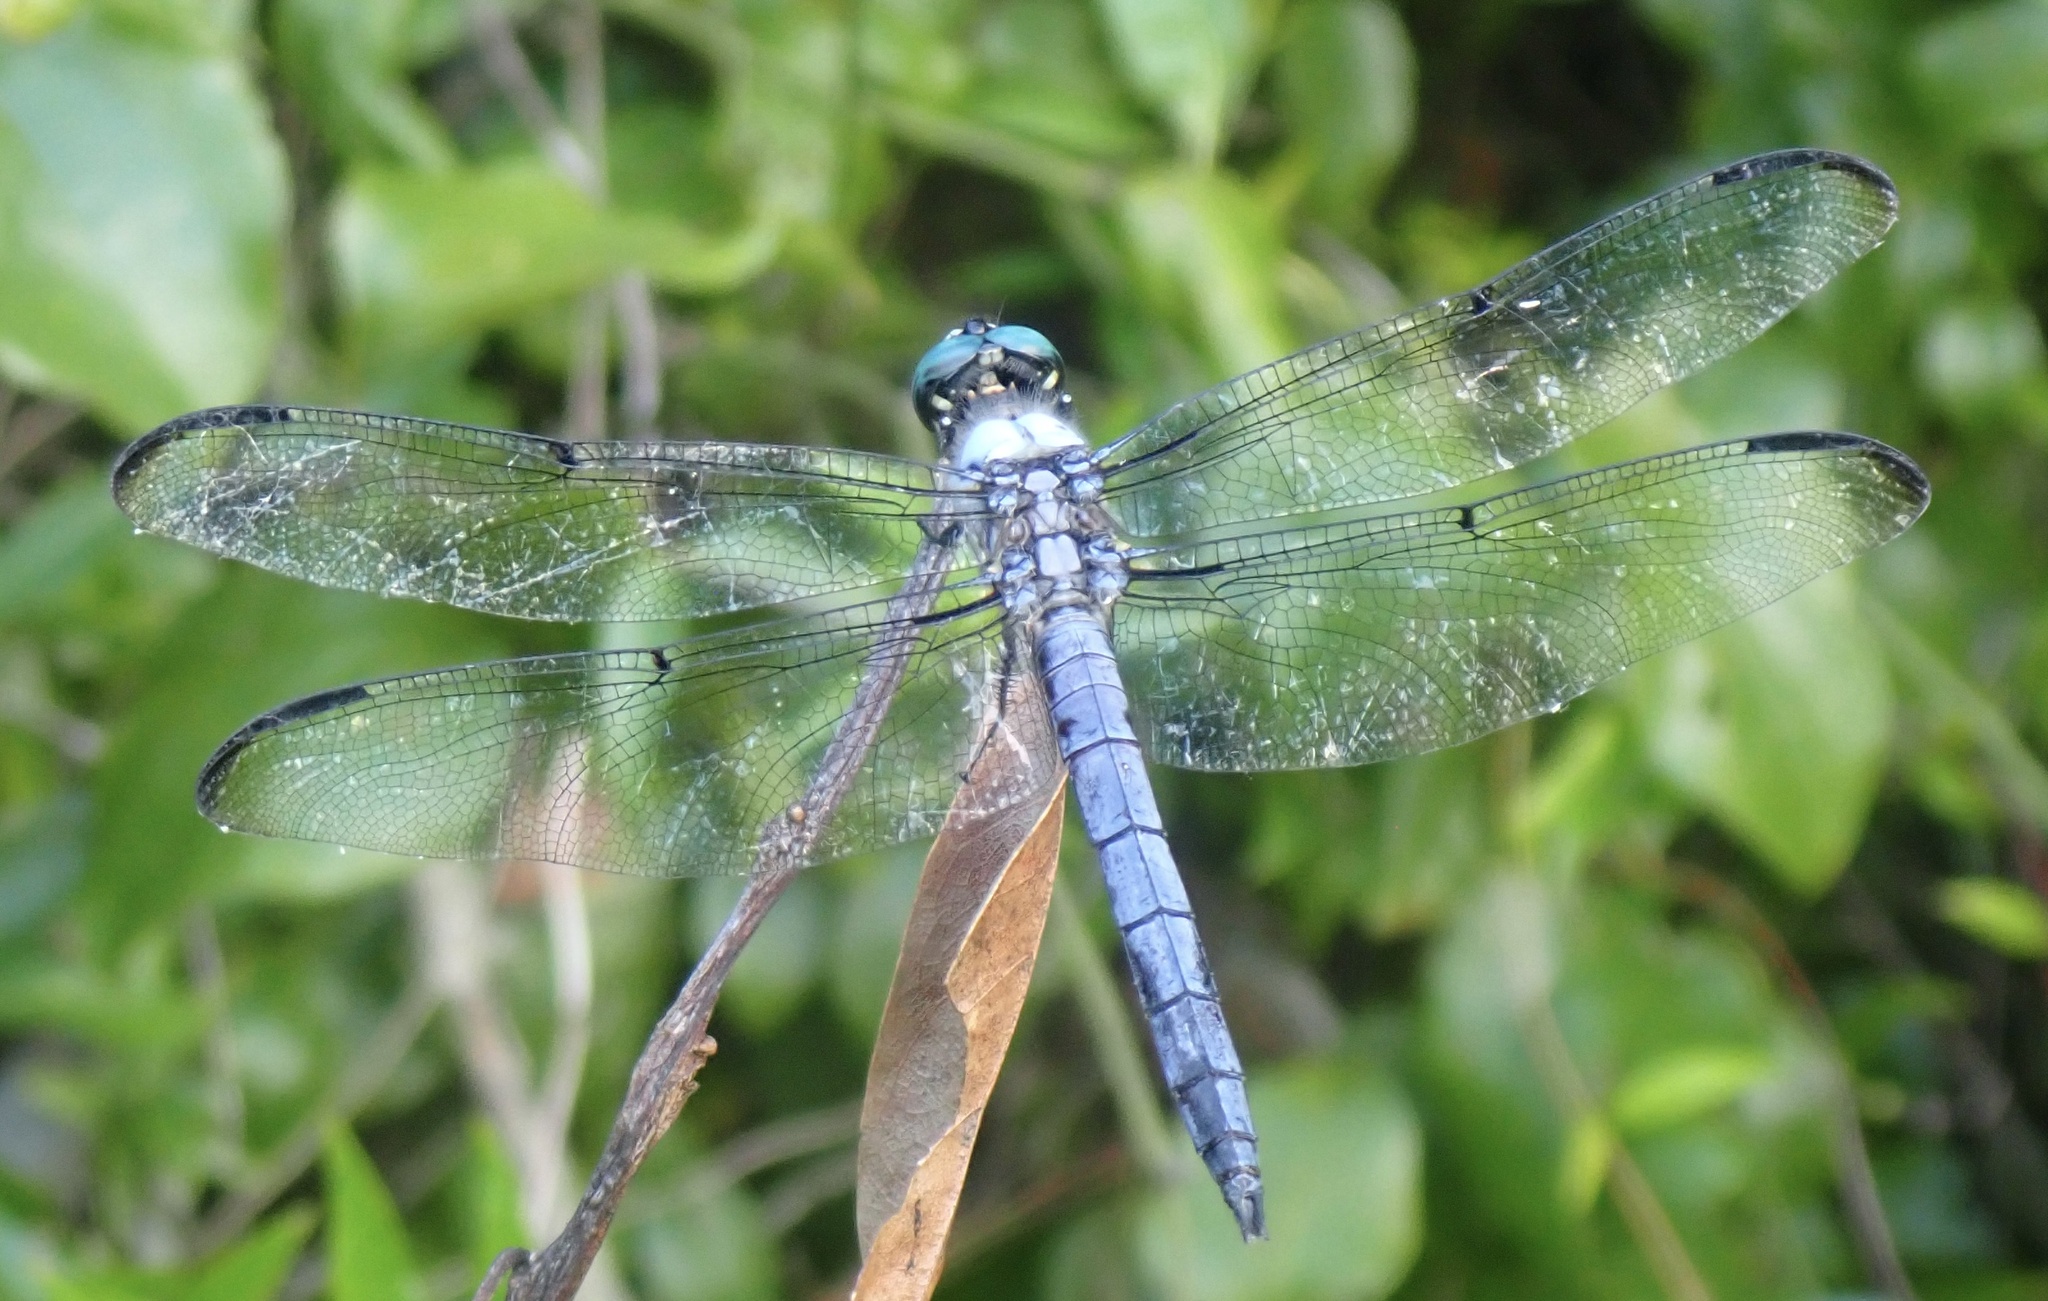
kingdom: Animalia
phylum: Arthropoda
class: Insecta
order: Odonata
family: Libellulidae
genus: Libellula
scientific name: Libellula vibrans
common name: Great blue skimmer
